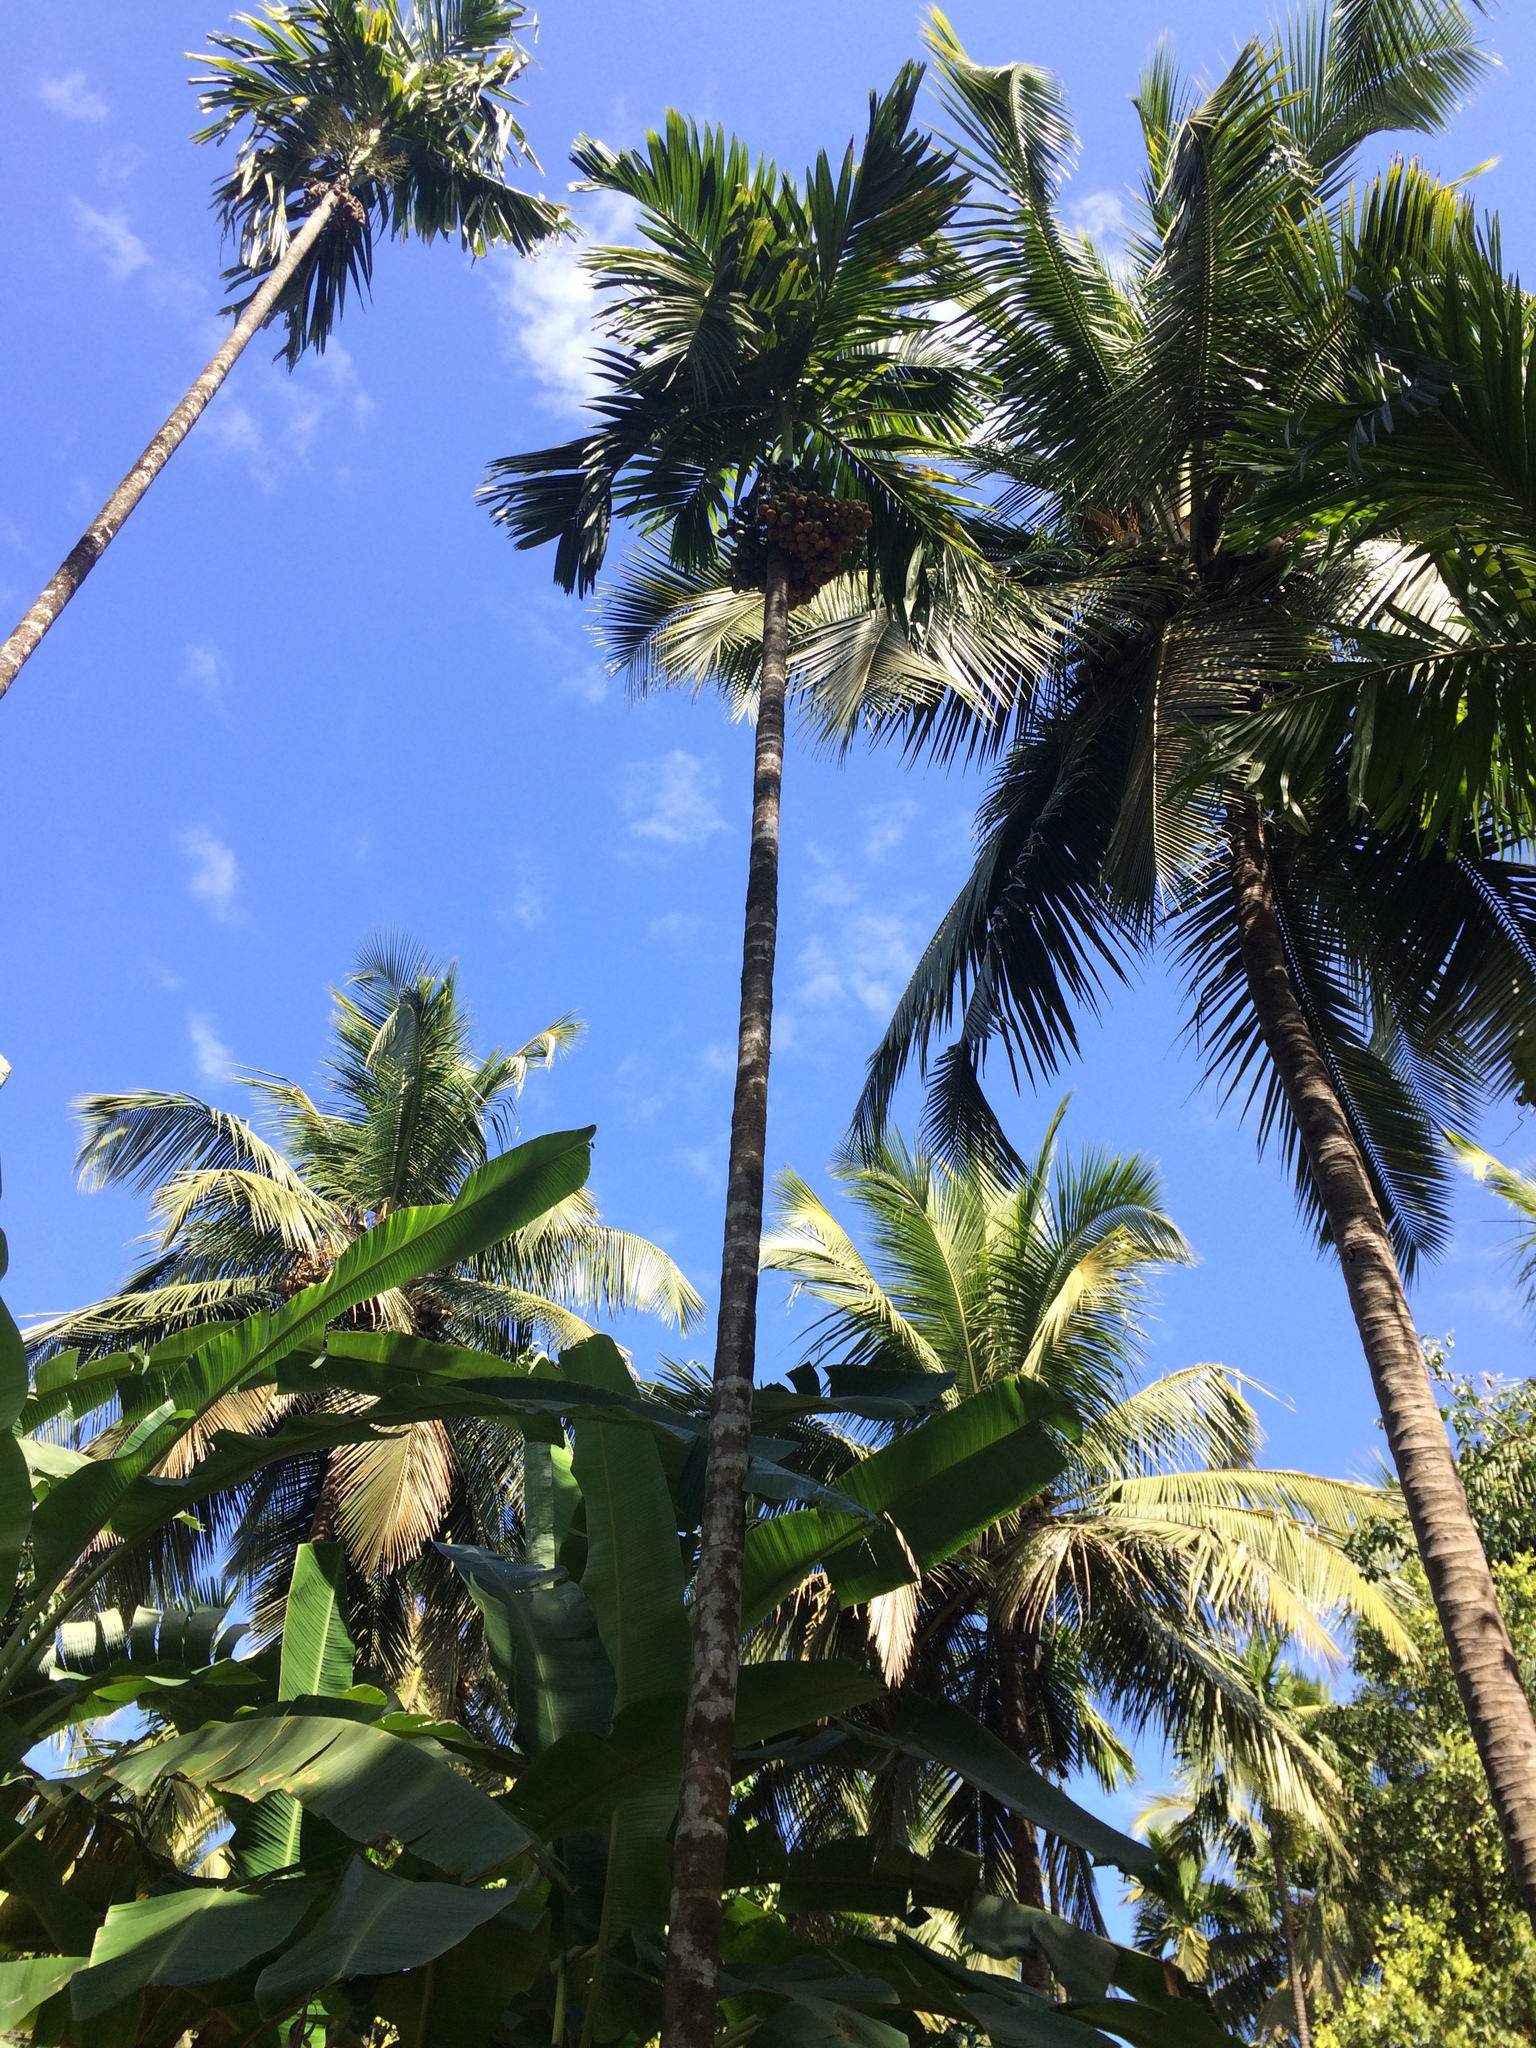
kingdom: Plantae
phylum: Tracheophyta
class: Liliopsida
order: Arecales
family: Arecaceae
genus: Areca
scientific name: Areca catechu
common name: Indian-nut
